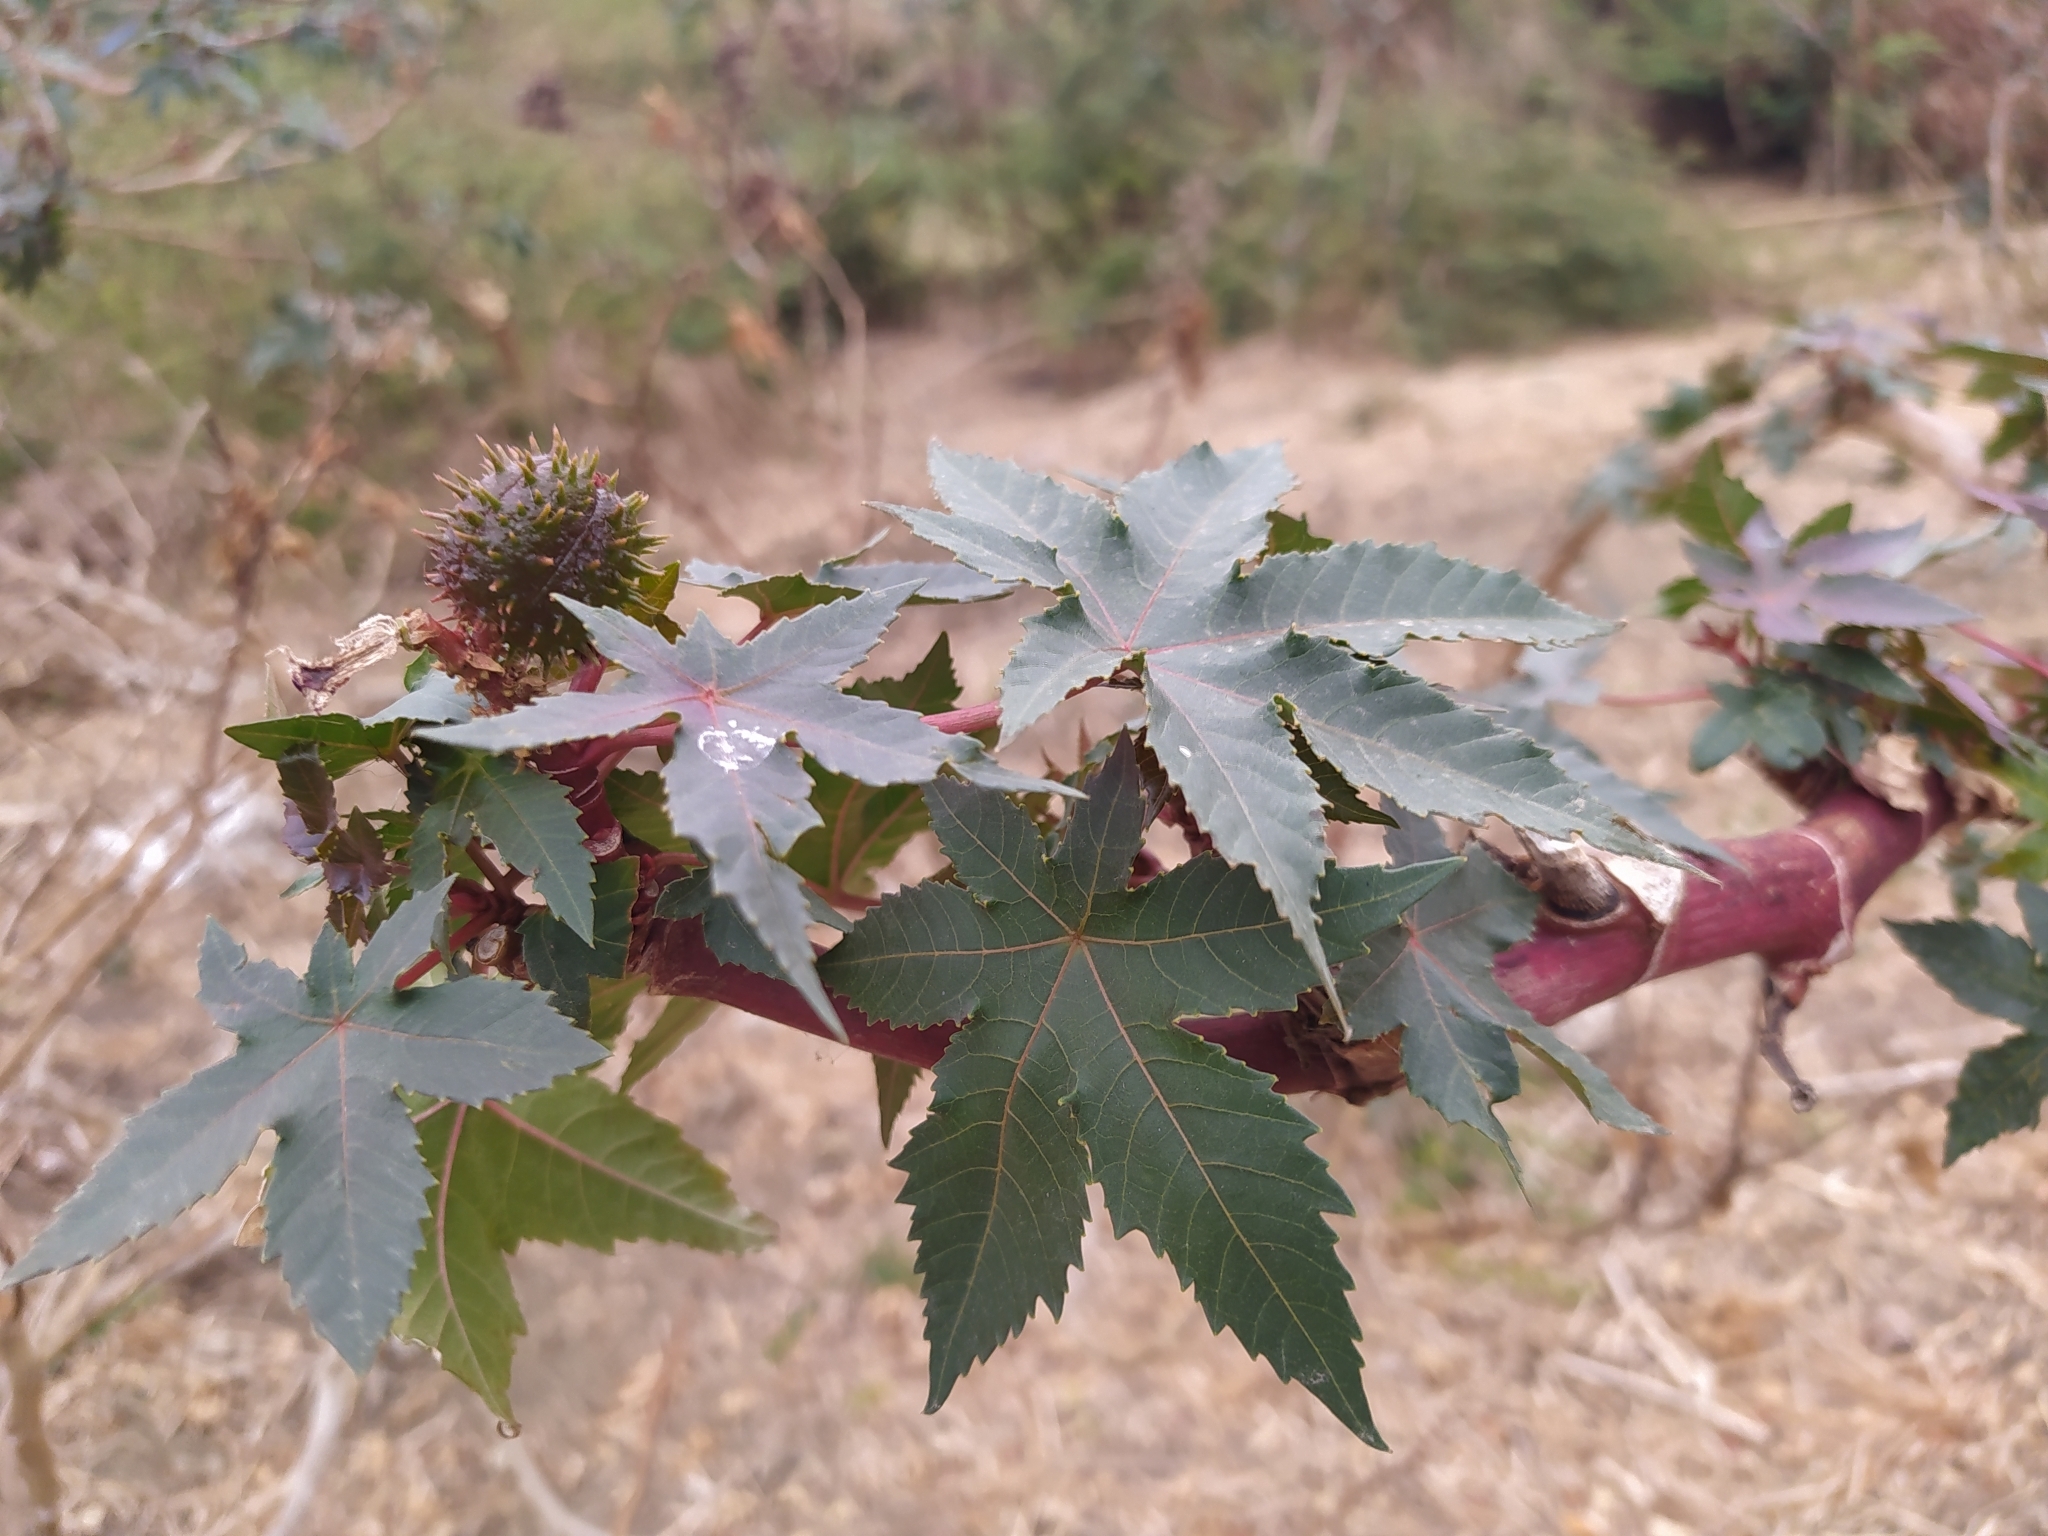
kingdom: Plantae
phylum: Tracheophyta
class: Magnoliopsida
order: Malpighiales
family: Euphorbiaceae
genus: Ricinus
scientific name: Ricinus communis
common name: Castor-oil-plant
